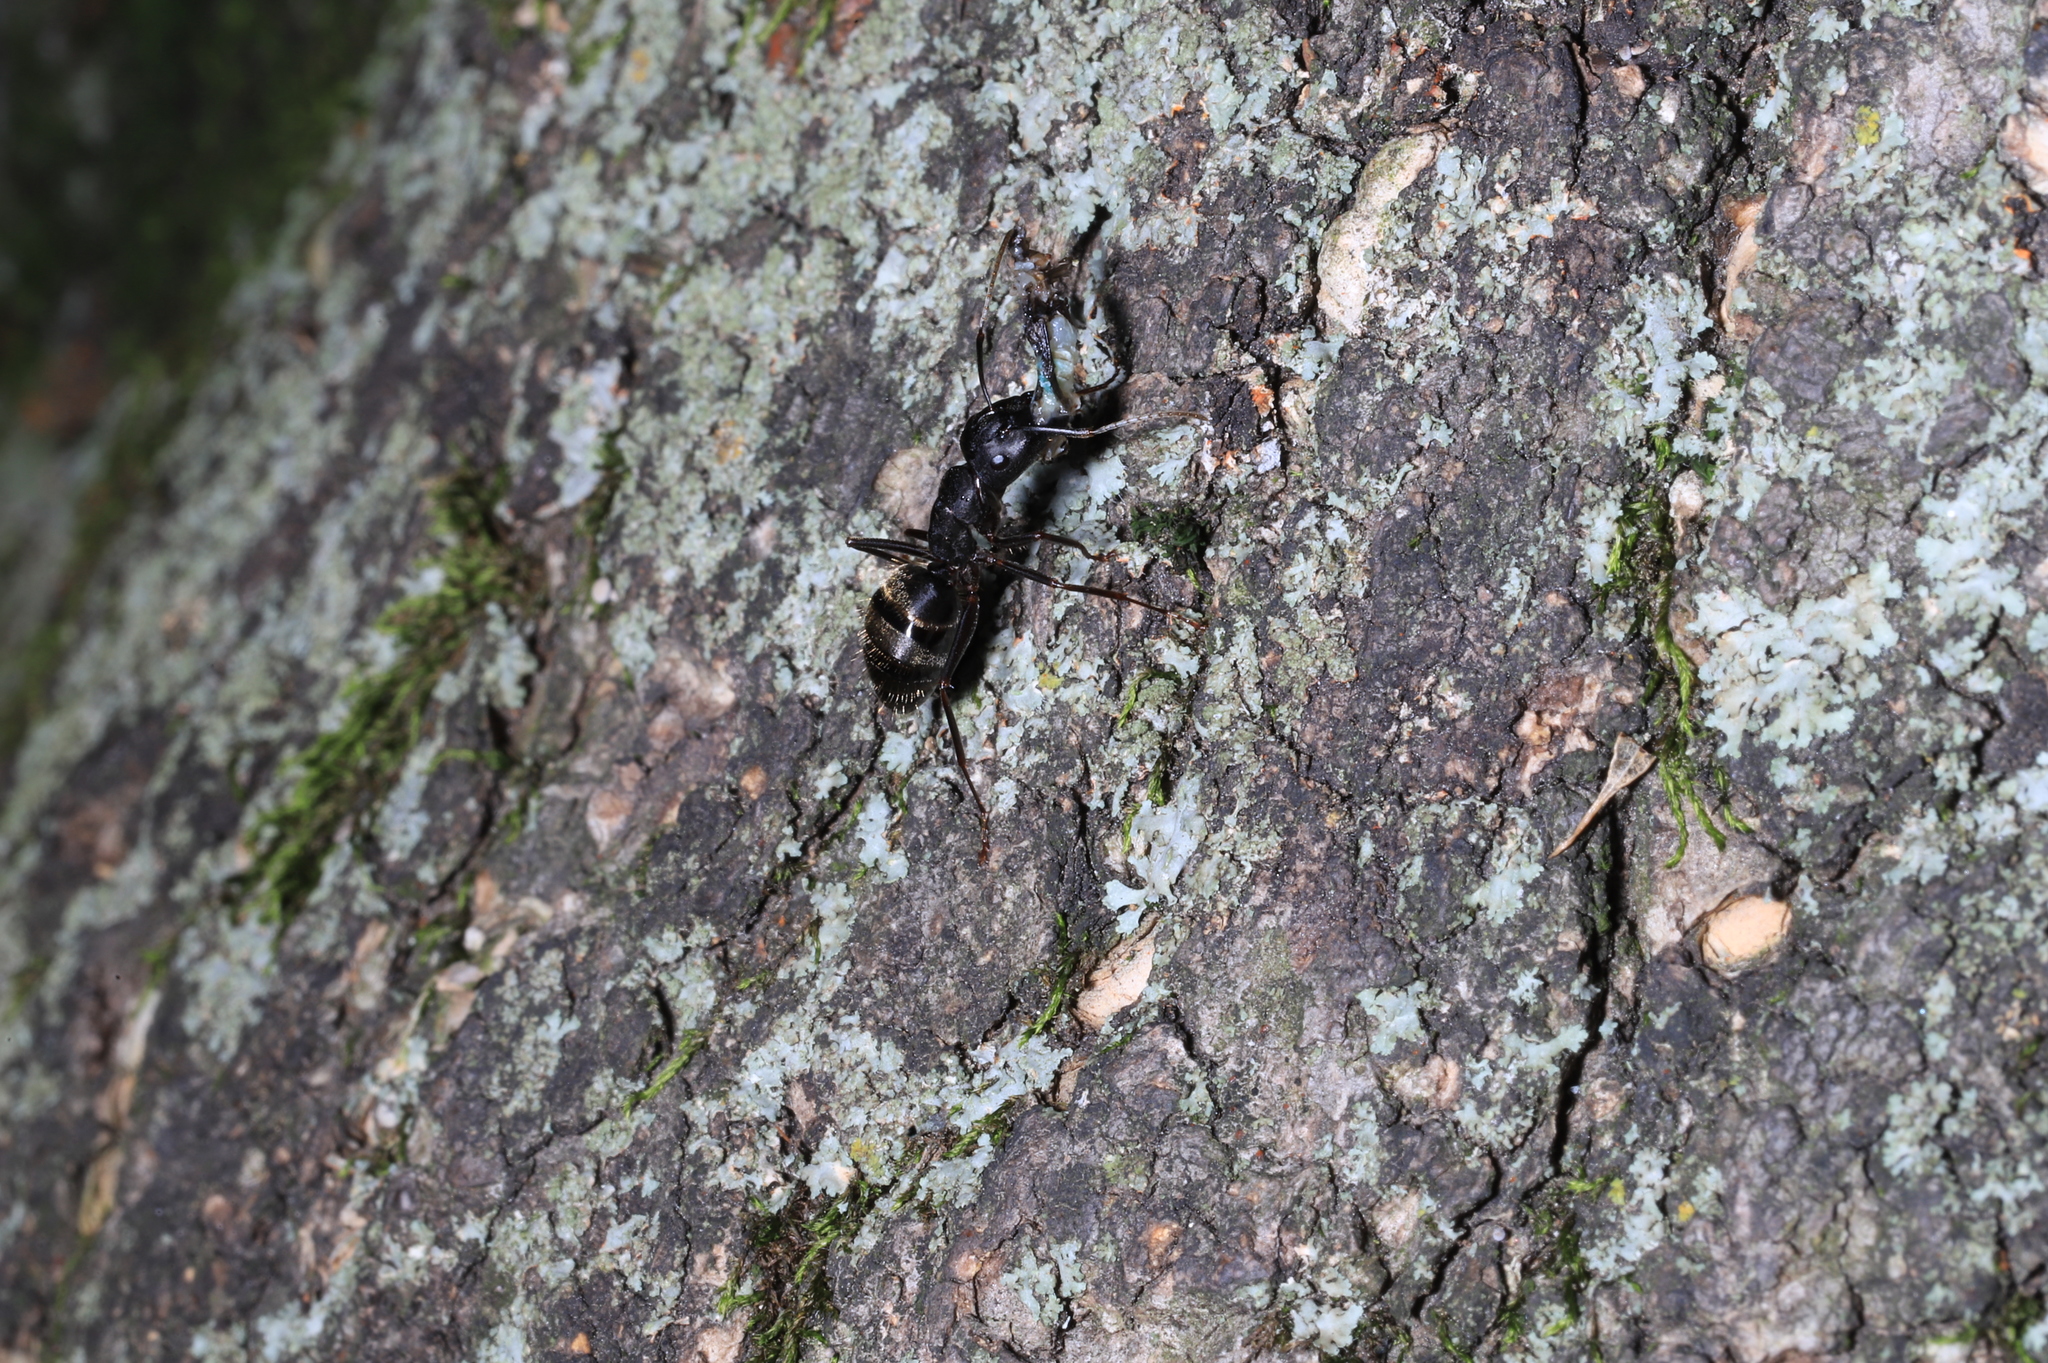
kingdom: Animalia
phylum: Arthropoda
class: Insecta
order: Hymenoptera
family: Formicidae
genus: Camponotus
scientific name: Camponotus pennsylvanicus
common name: Black carpenter ant
